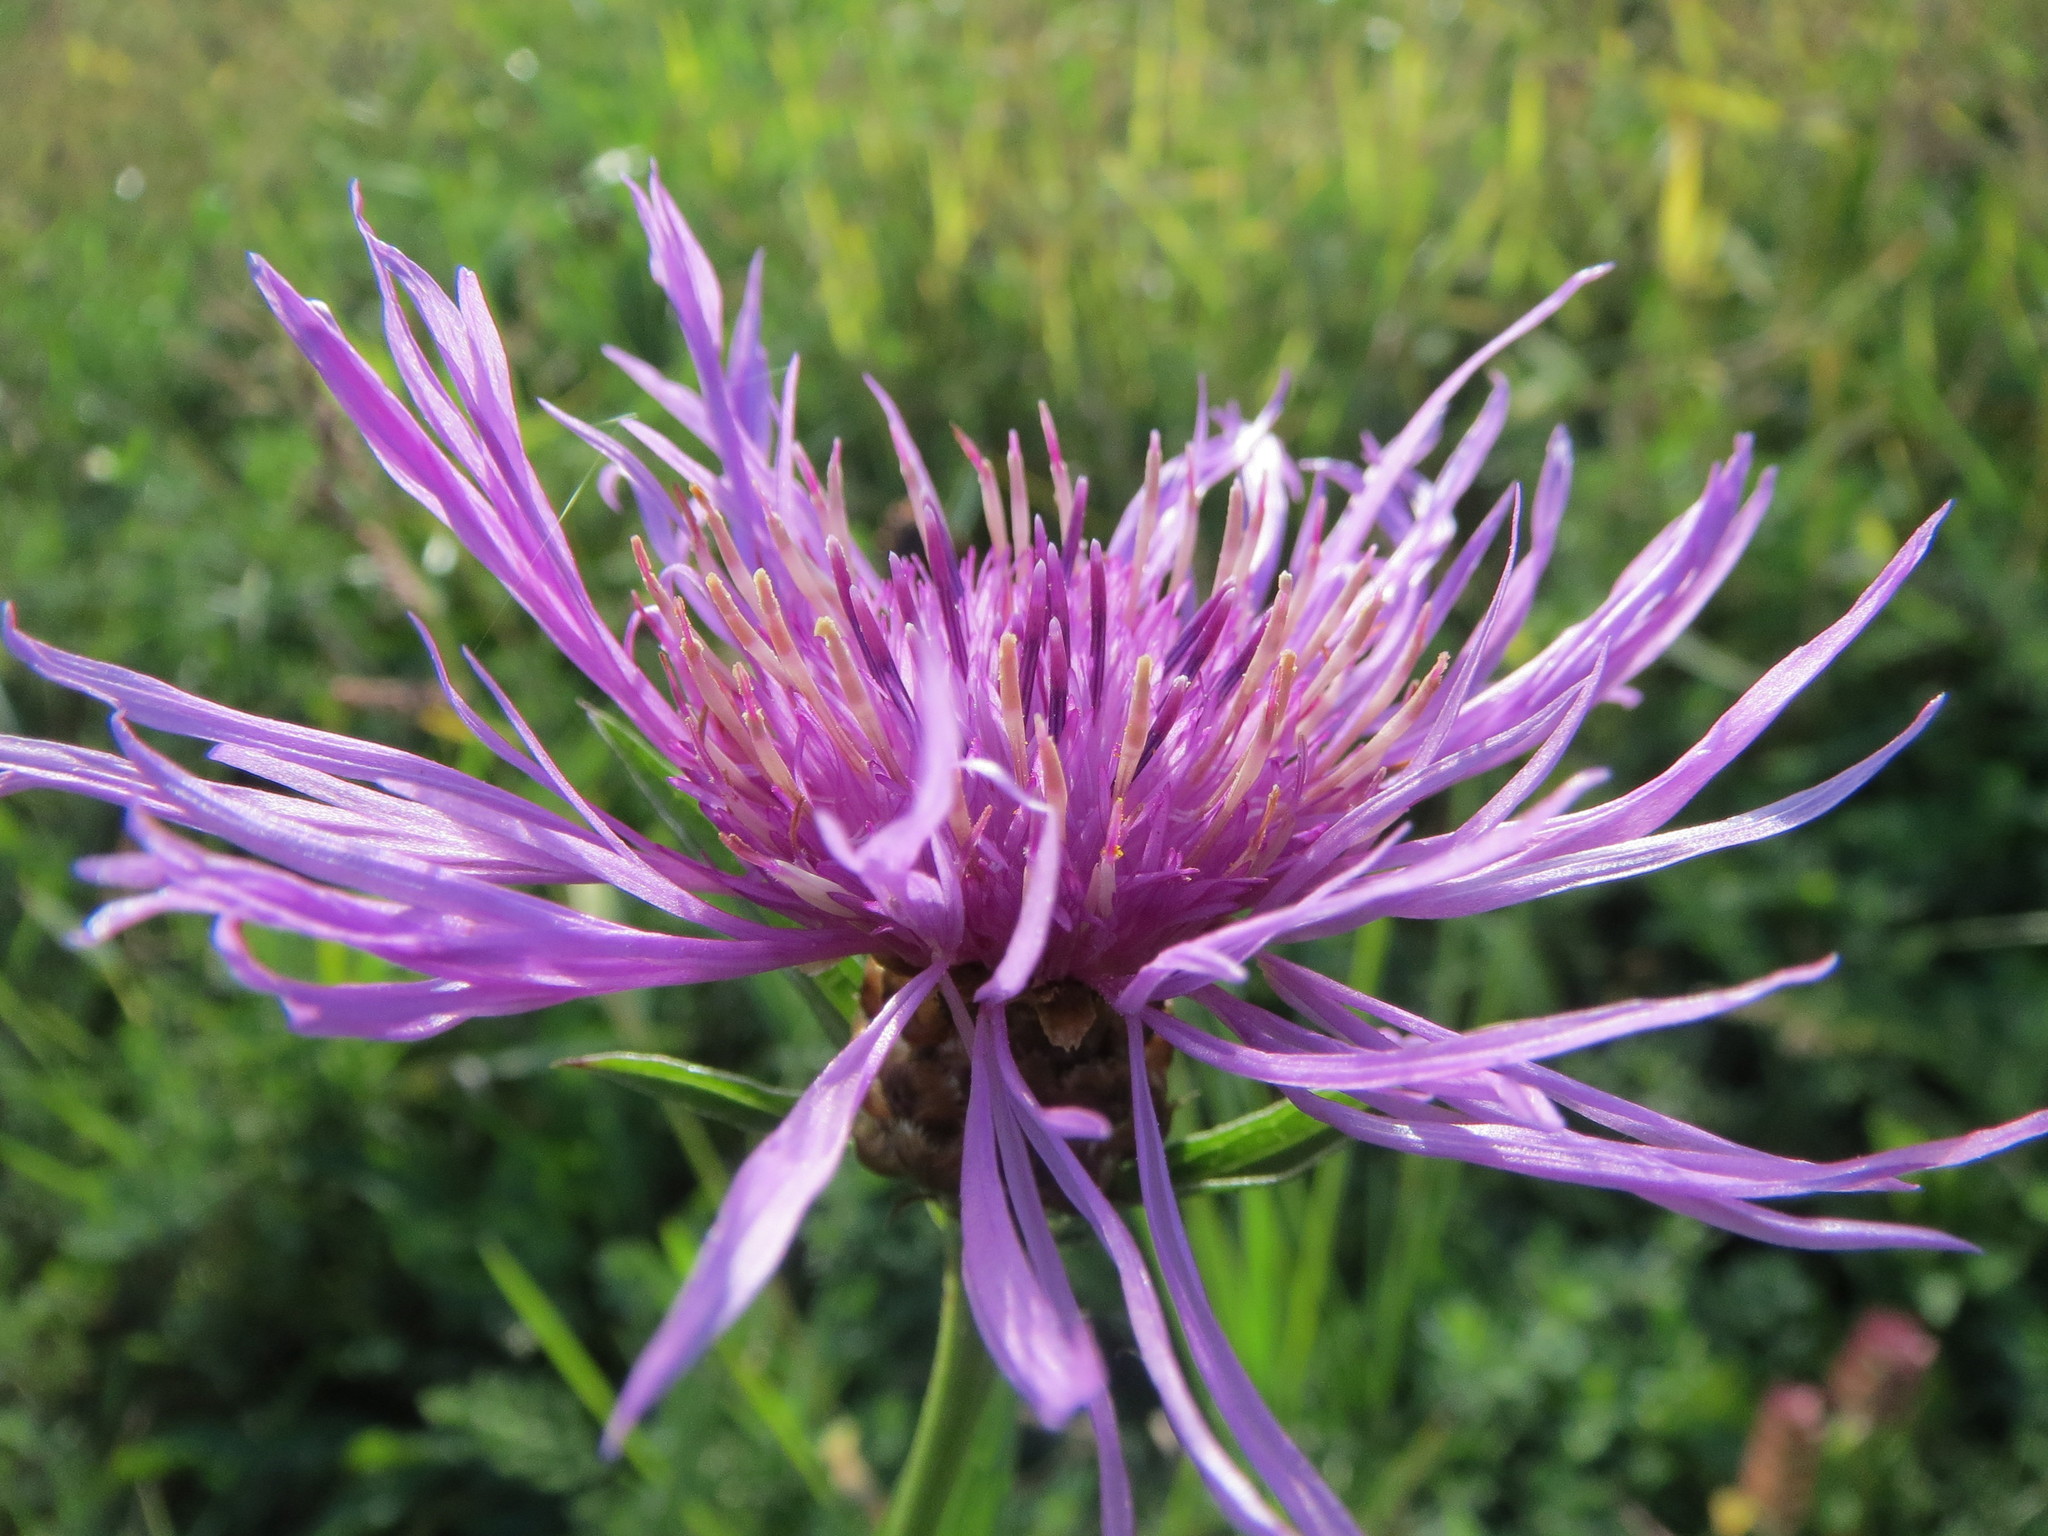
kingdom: Plantae
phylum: Tracheophyta
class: Magnoliopsida
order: Asterales
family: Asteraceae
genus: Centaurea
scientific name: Centaurea jacea
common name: Brown knapweed
